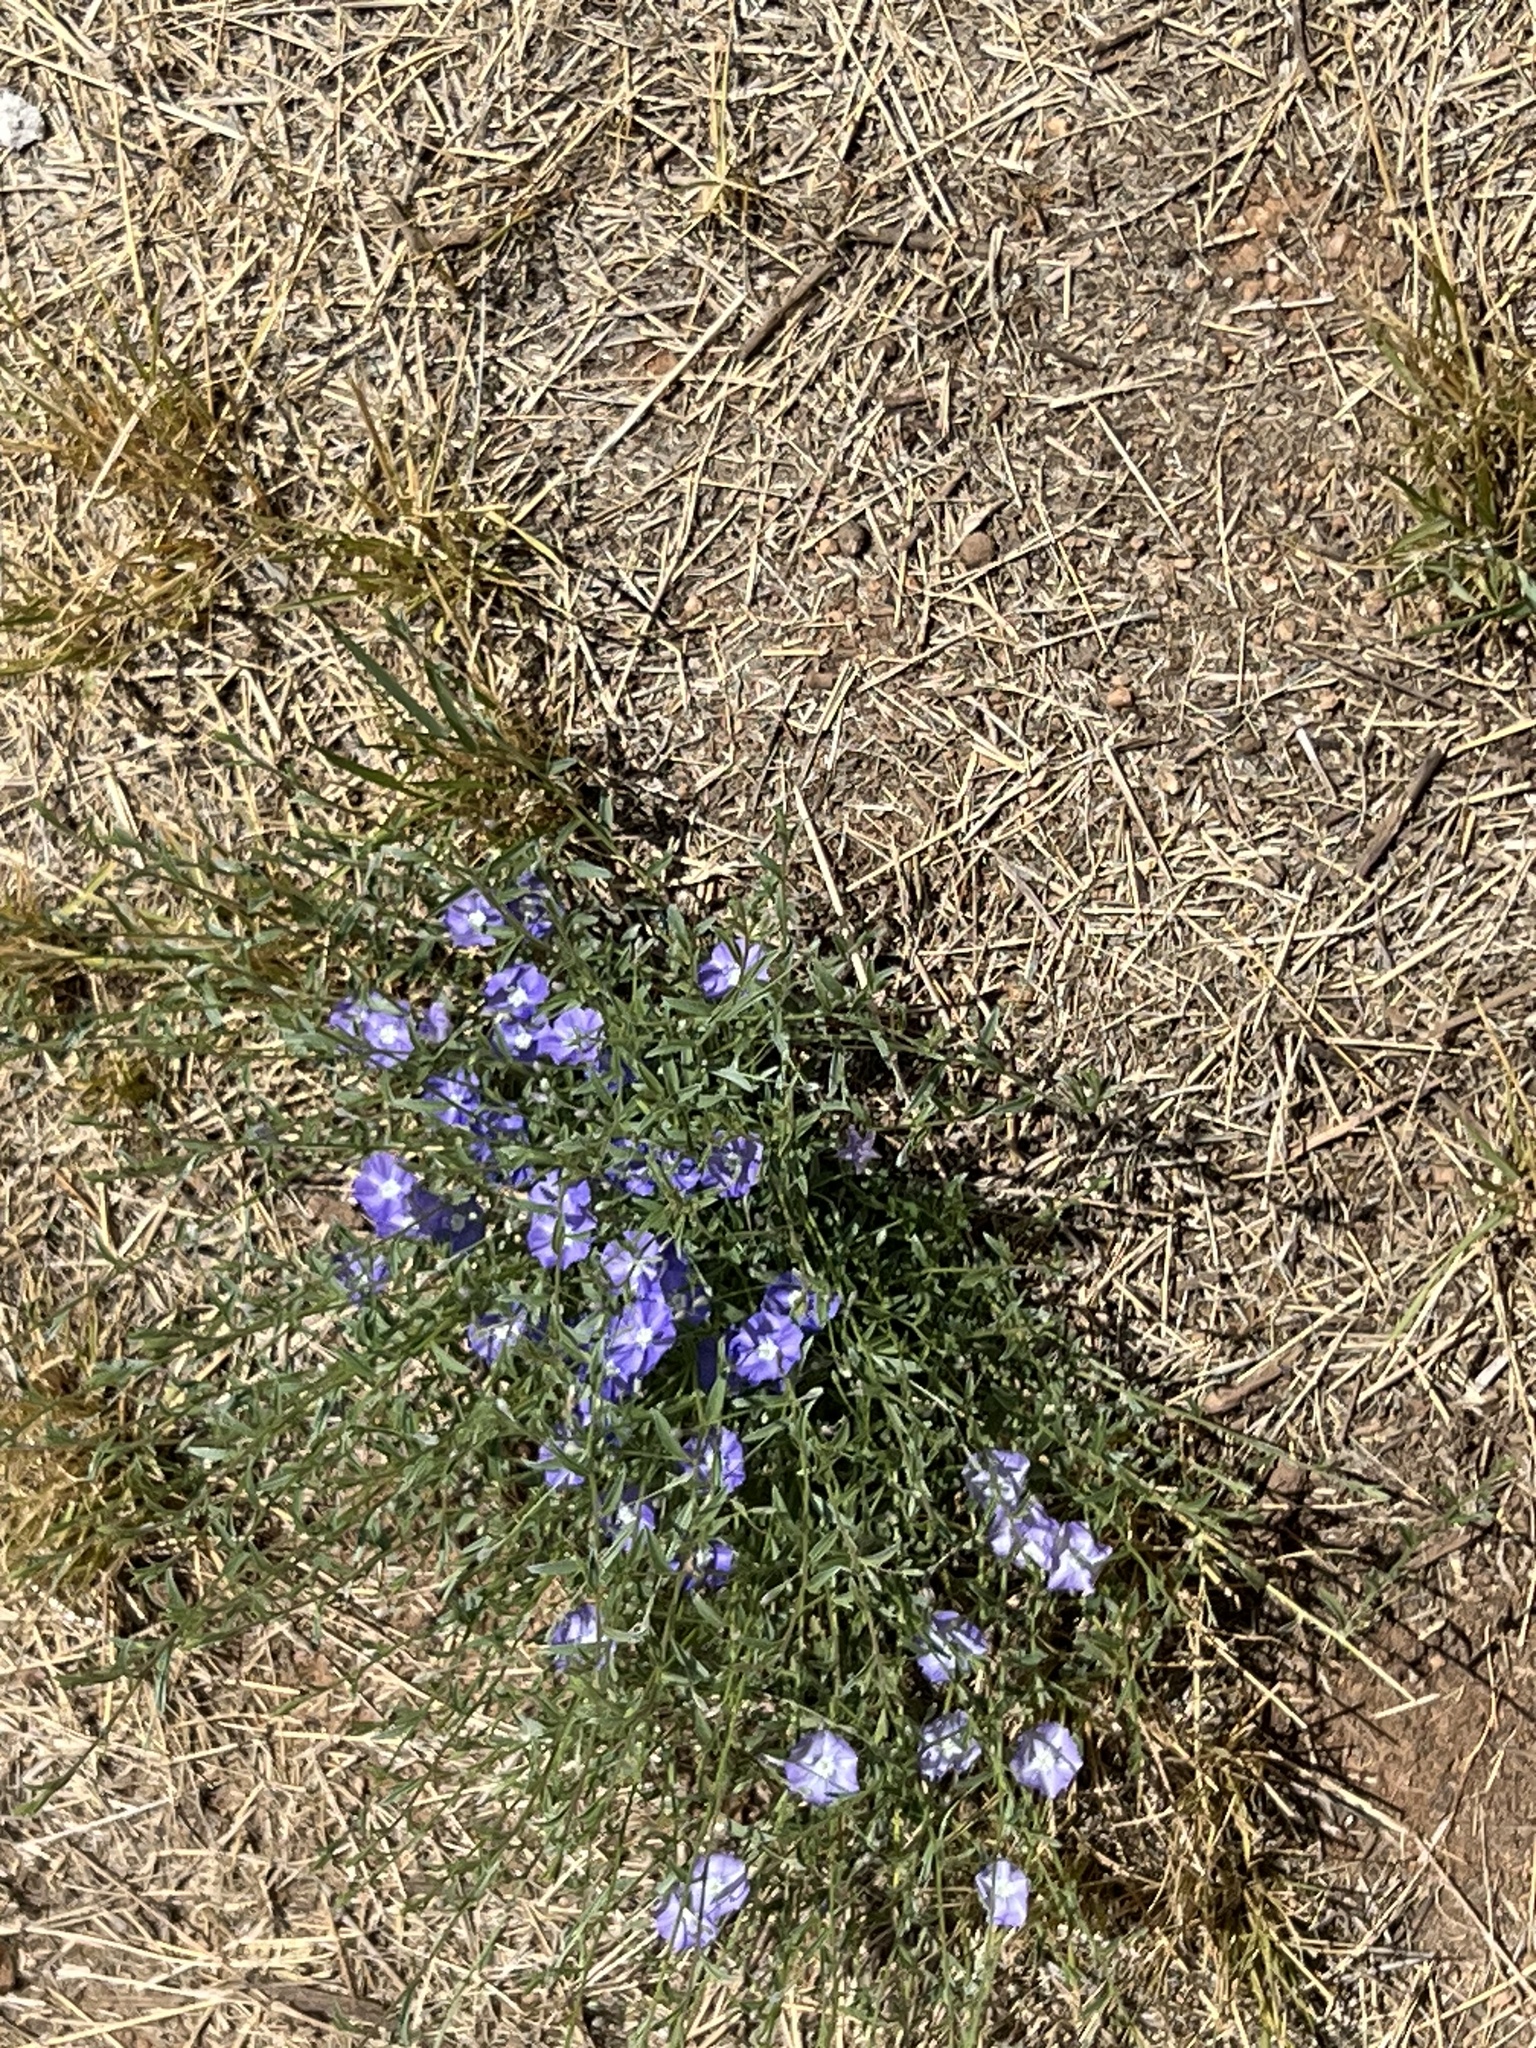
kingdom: Plantae
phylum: Tracheophyta
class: Magnoliopsida
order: Solanales
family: Convolvulaceae
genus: Evolvulus
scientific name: Evolvulus arizonicus
